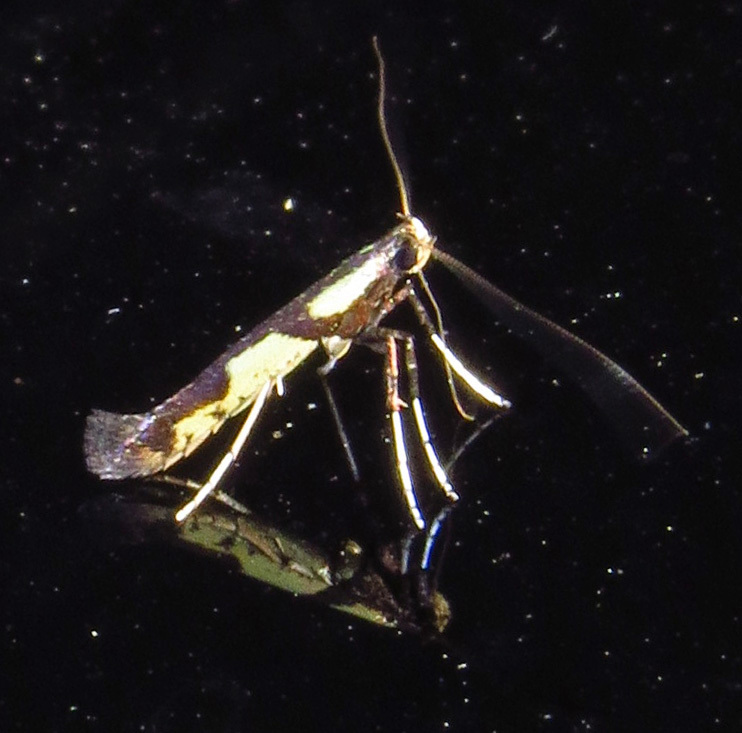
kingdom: Animalia
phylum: Arthropoda
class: Insecta
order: Lepidoptera
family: Gracillariidae
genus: Caloptilia
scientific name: Caloptilia blandella
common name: Walnut caloptilia moth
